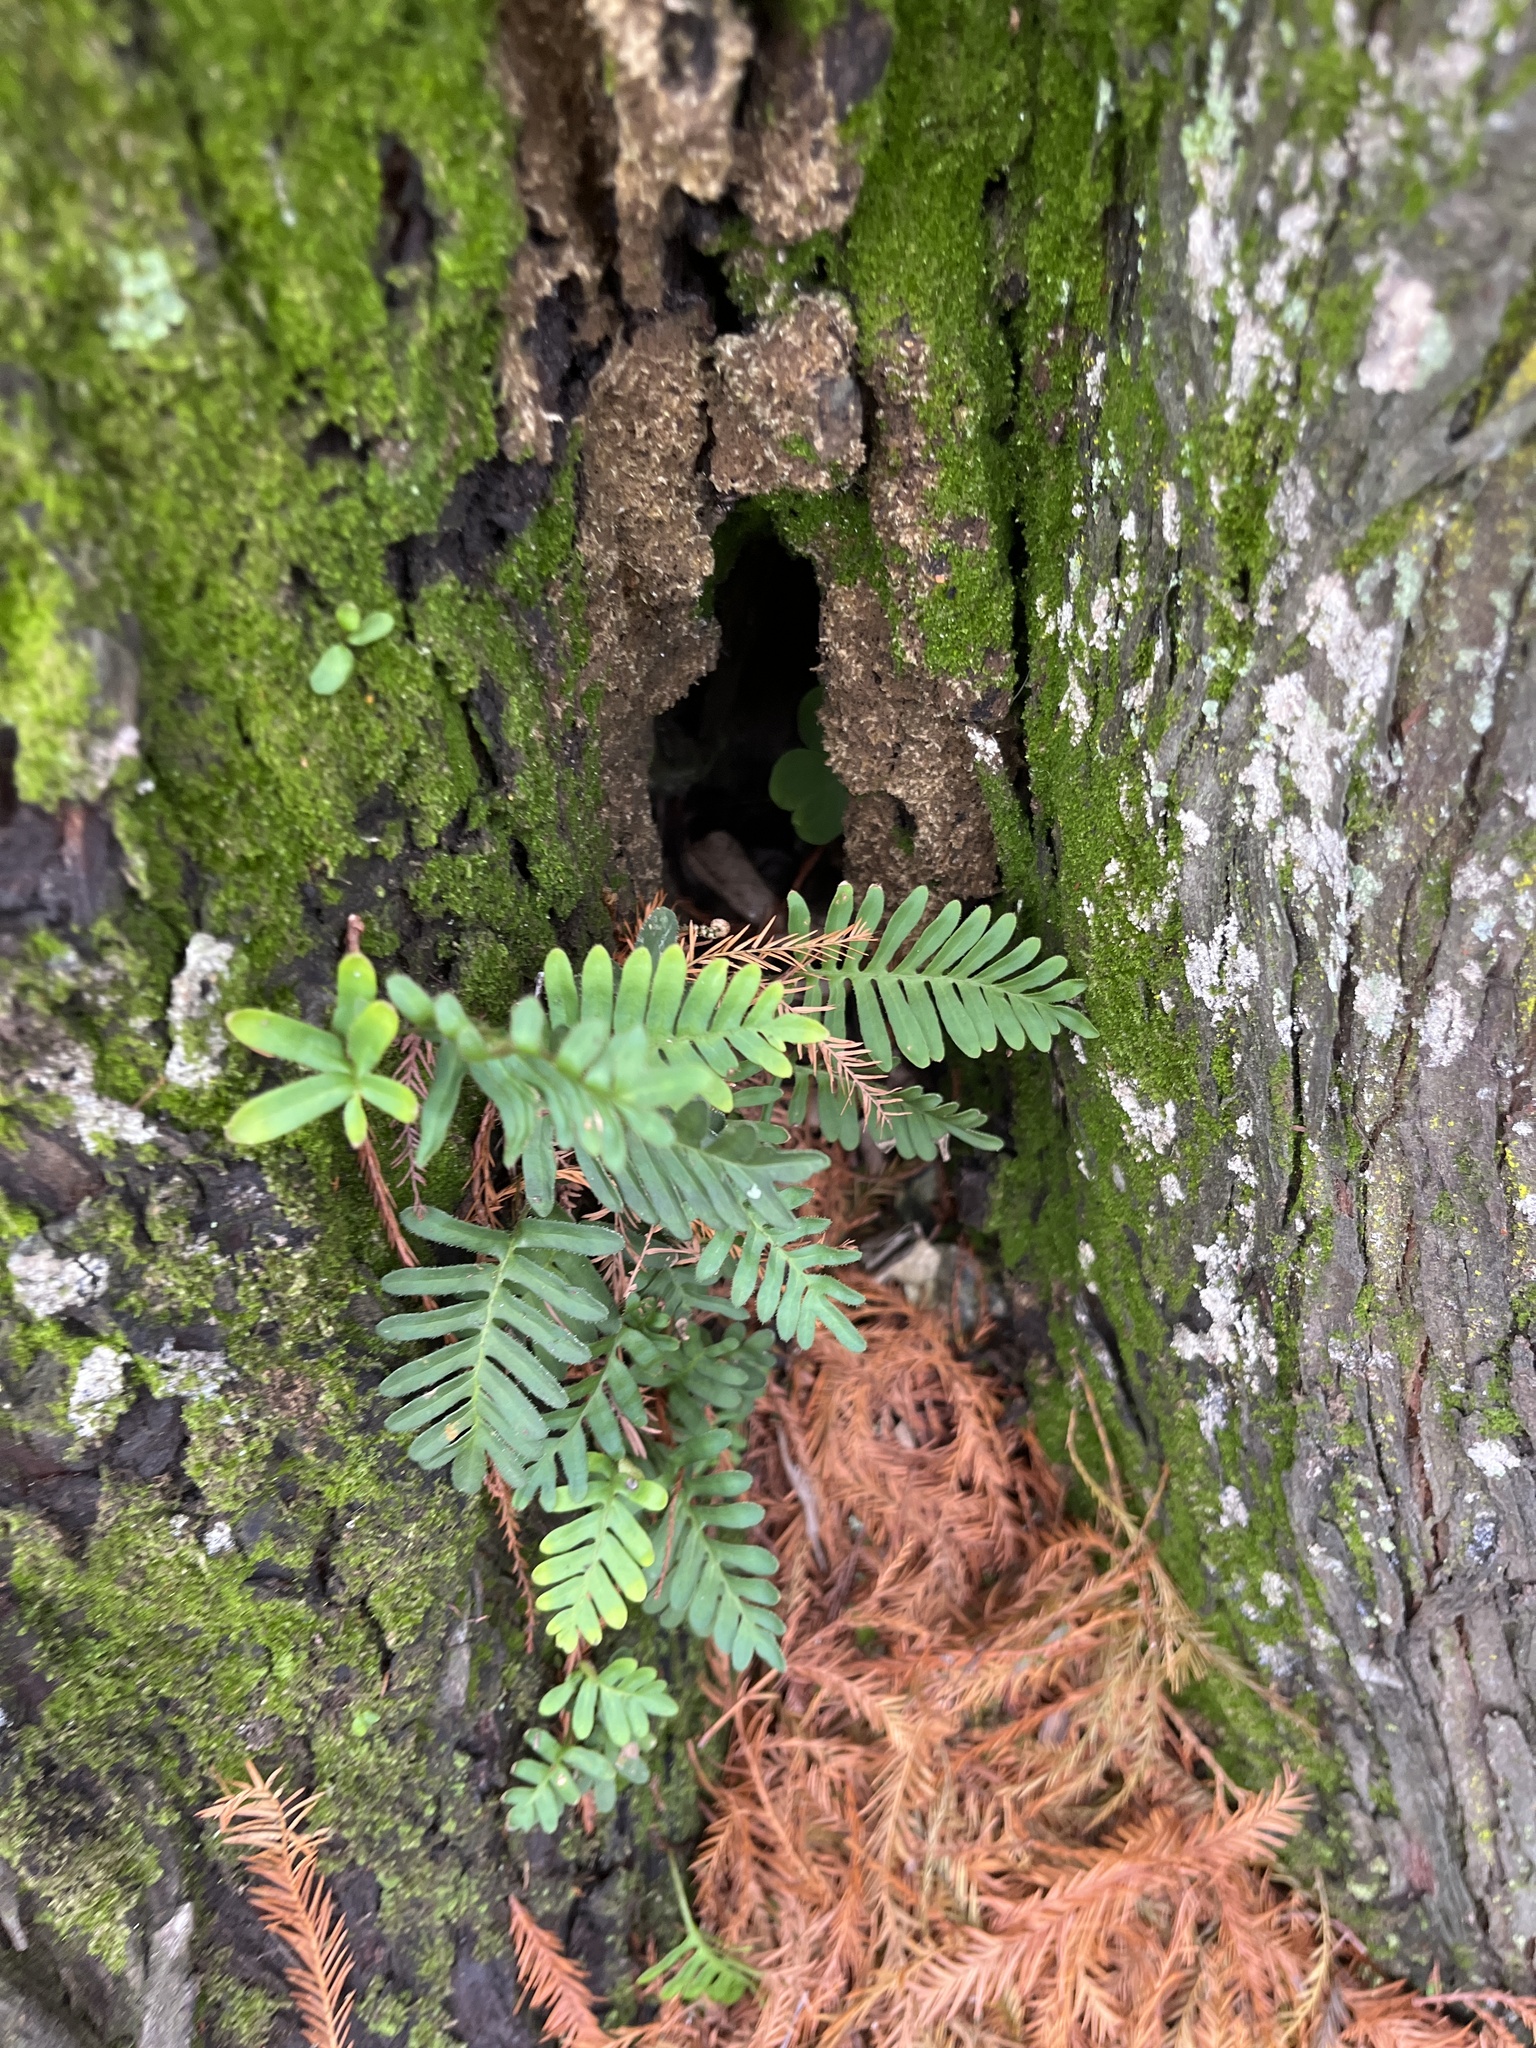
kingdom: Plantae
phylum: Tracheophyta
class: Polypodiopsida
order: Polypodiales
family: Polypodiaceae
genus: Pleopeltis
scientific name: Pleopeltis michauxiana
